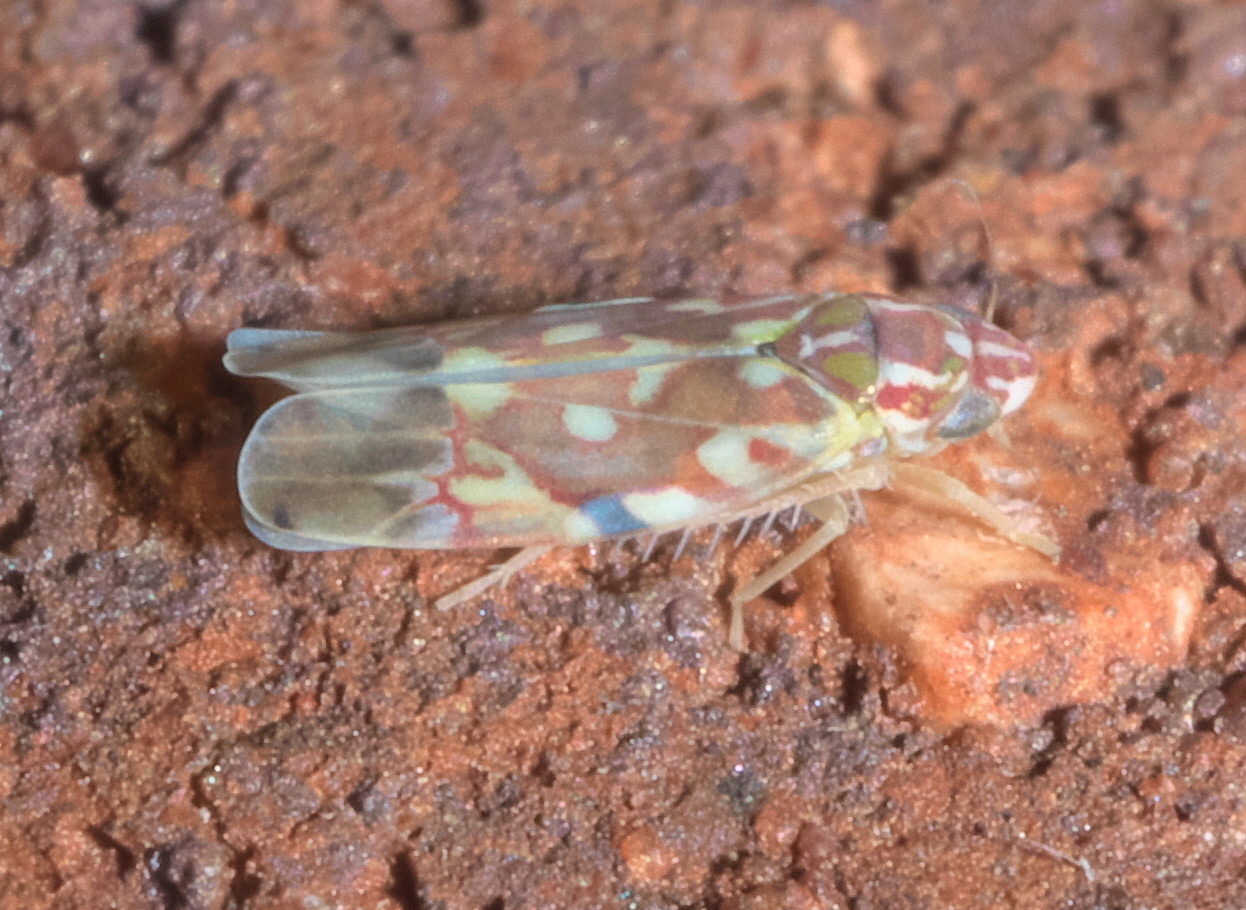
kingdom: Animalia
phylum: Arthropoda
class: Insecta
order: Hemiptera
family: Cicadellidae
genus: Erythroneura
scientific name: Erythroneura reflecta
